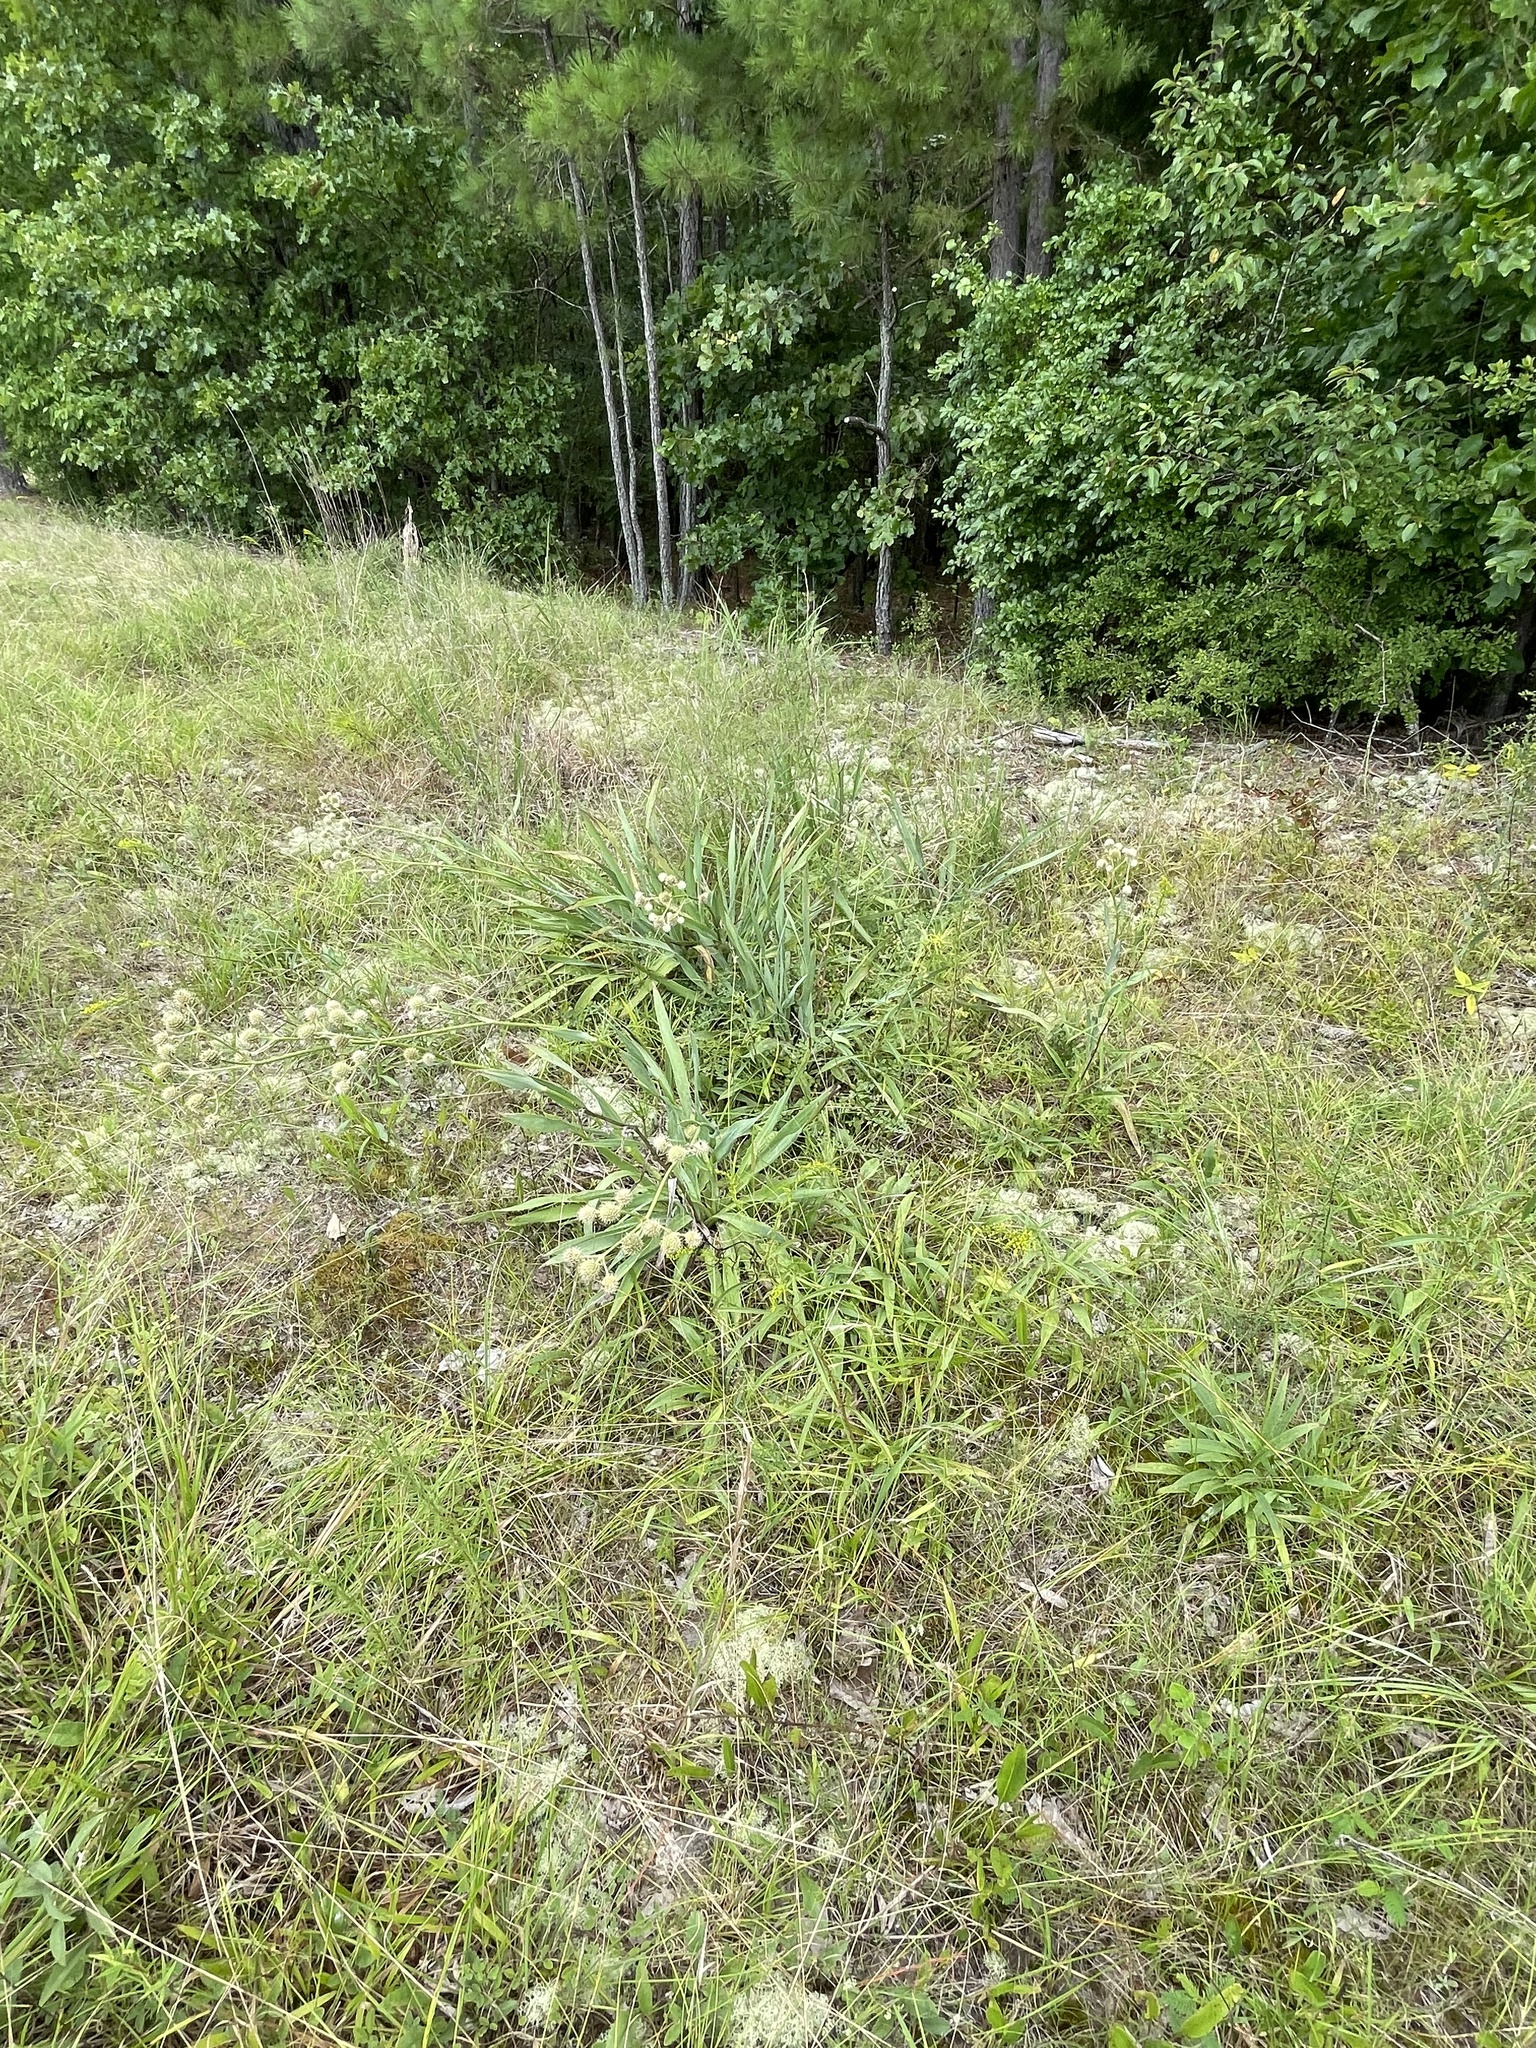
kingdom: Plantae
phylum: Tracheophyta
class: Magnoliopsida
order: Apiales
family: Apiaceae
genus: Eryngium
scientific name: Eryngium yuccifolium
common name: Button eryngo
